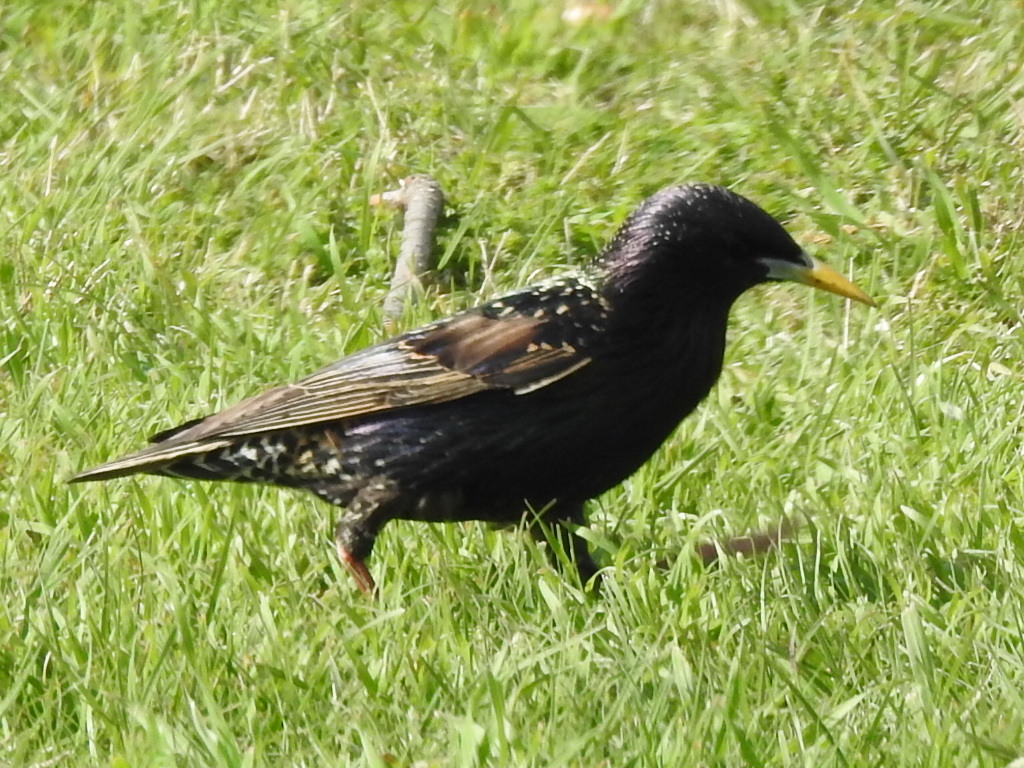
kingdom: Animalia
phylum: Chordata
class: Aves
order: Passeriformes
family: Sturnidae
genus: Sturnus
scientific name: Sturnus vulgaris
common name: Common starling
